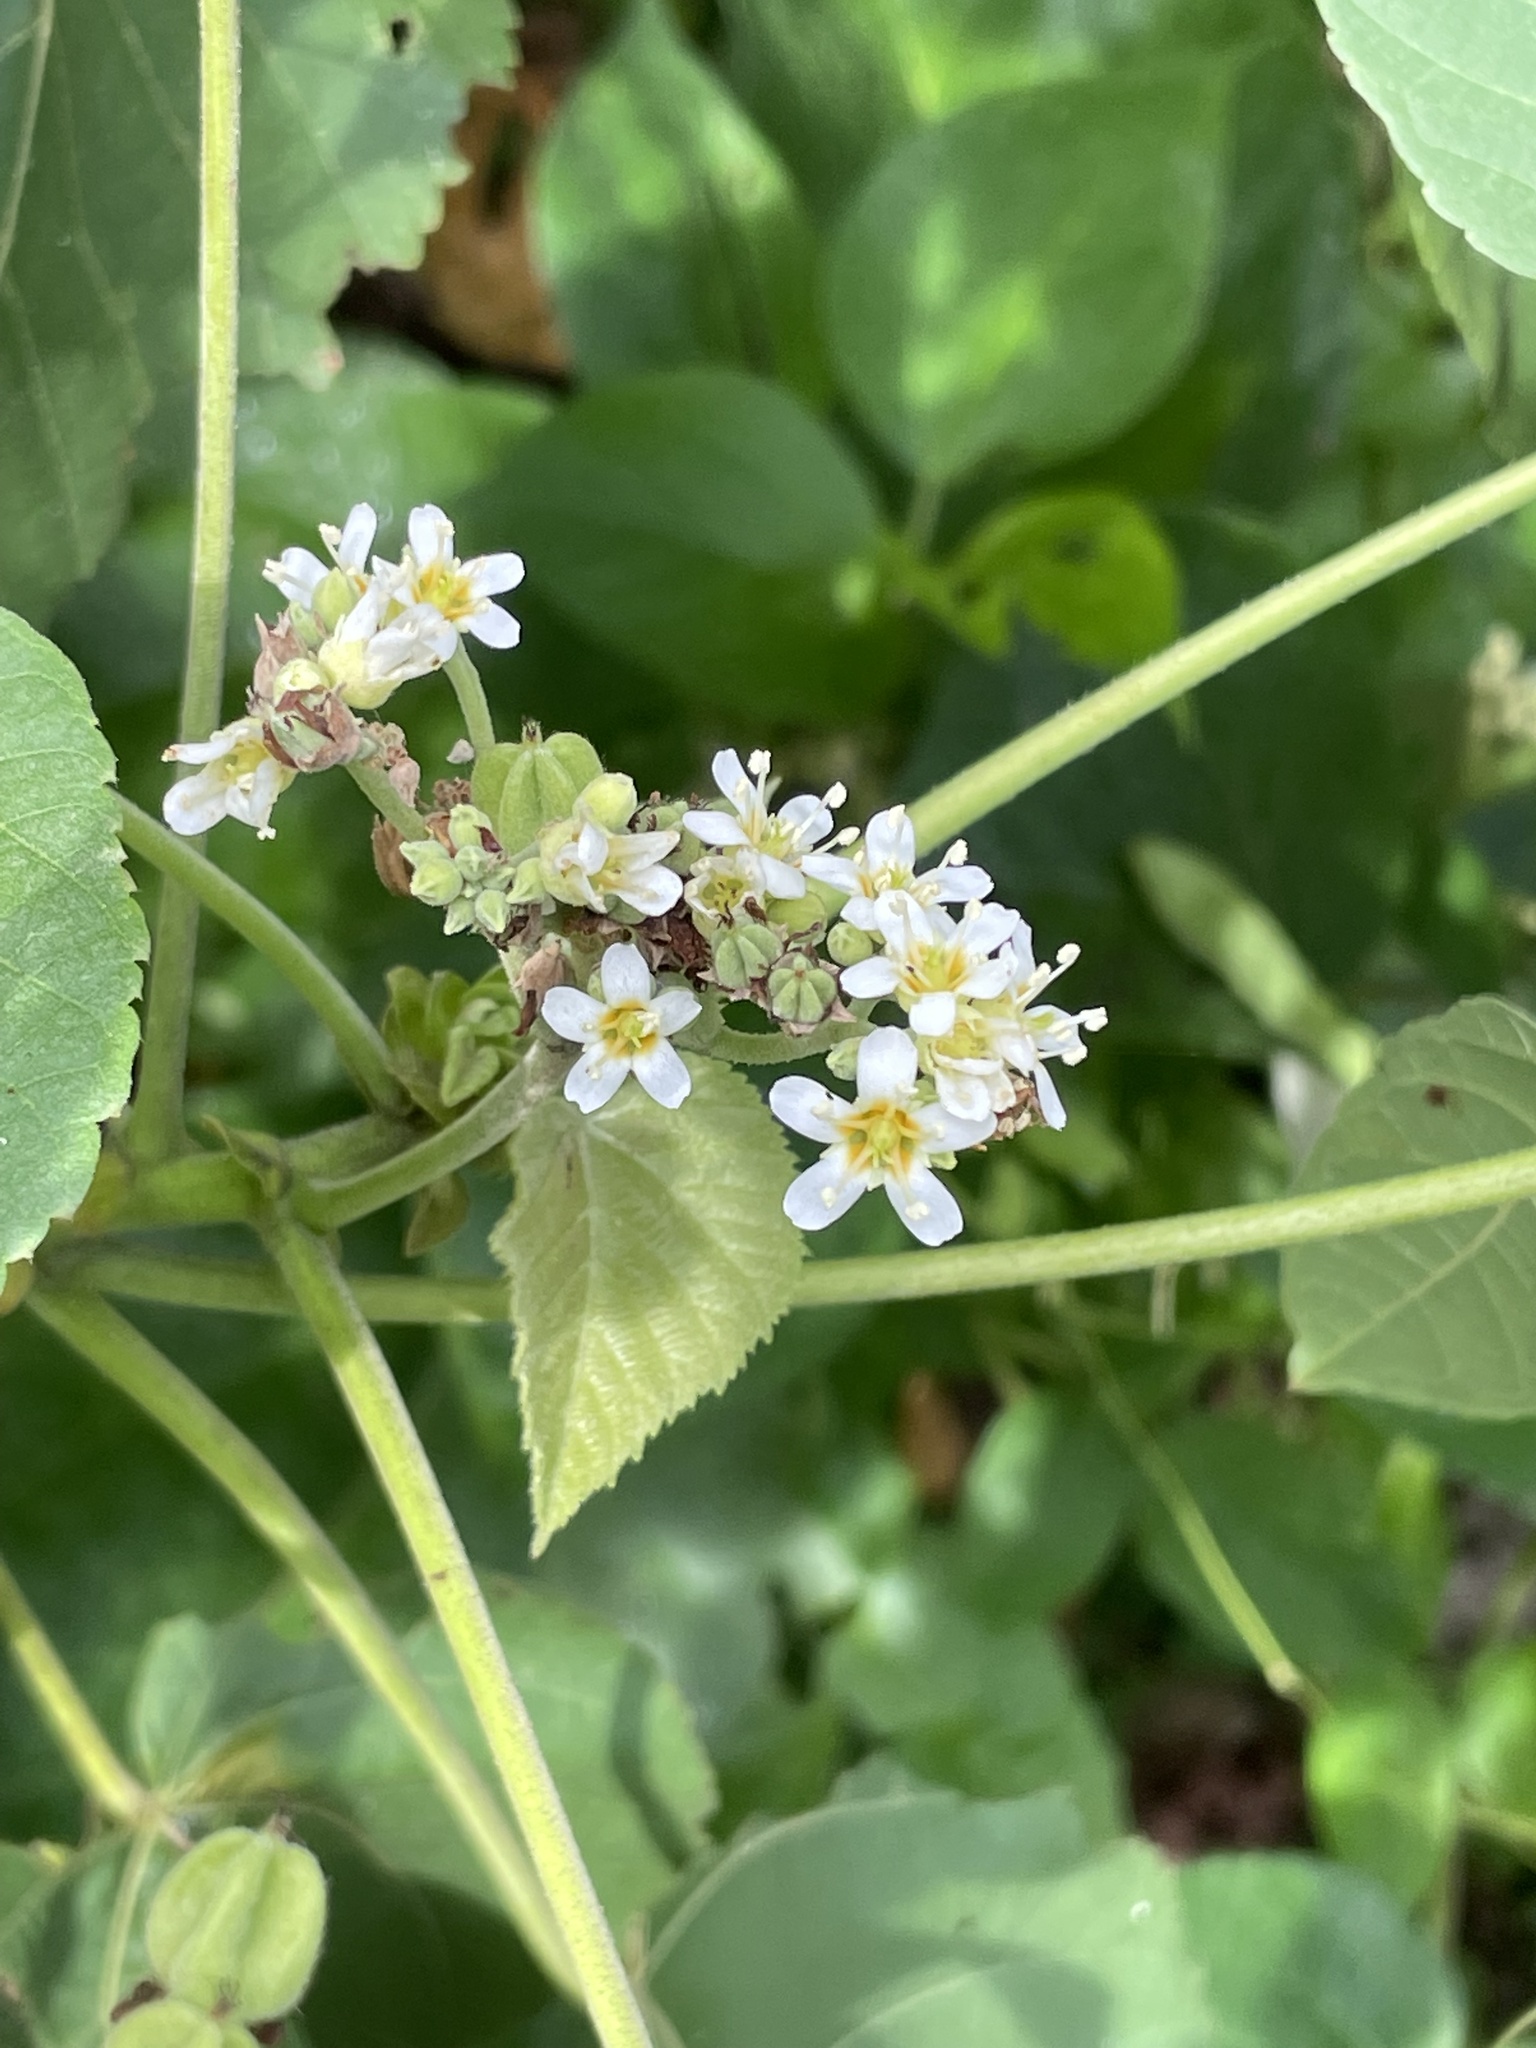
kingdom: Plantae
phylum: Tracheophyta
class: Magnoliopsida
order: Malvales
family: Malvaceae
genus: Melochia
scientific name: Melochia umbellata
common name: Gunpowder tree
